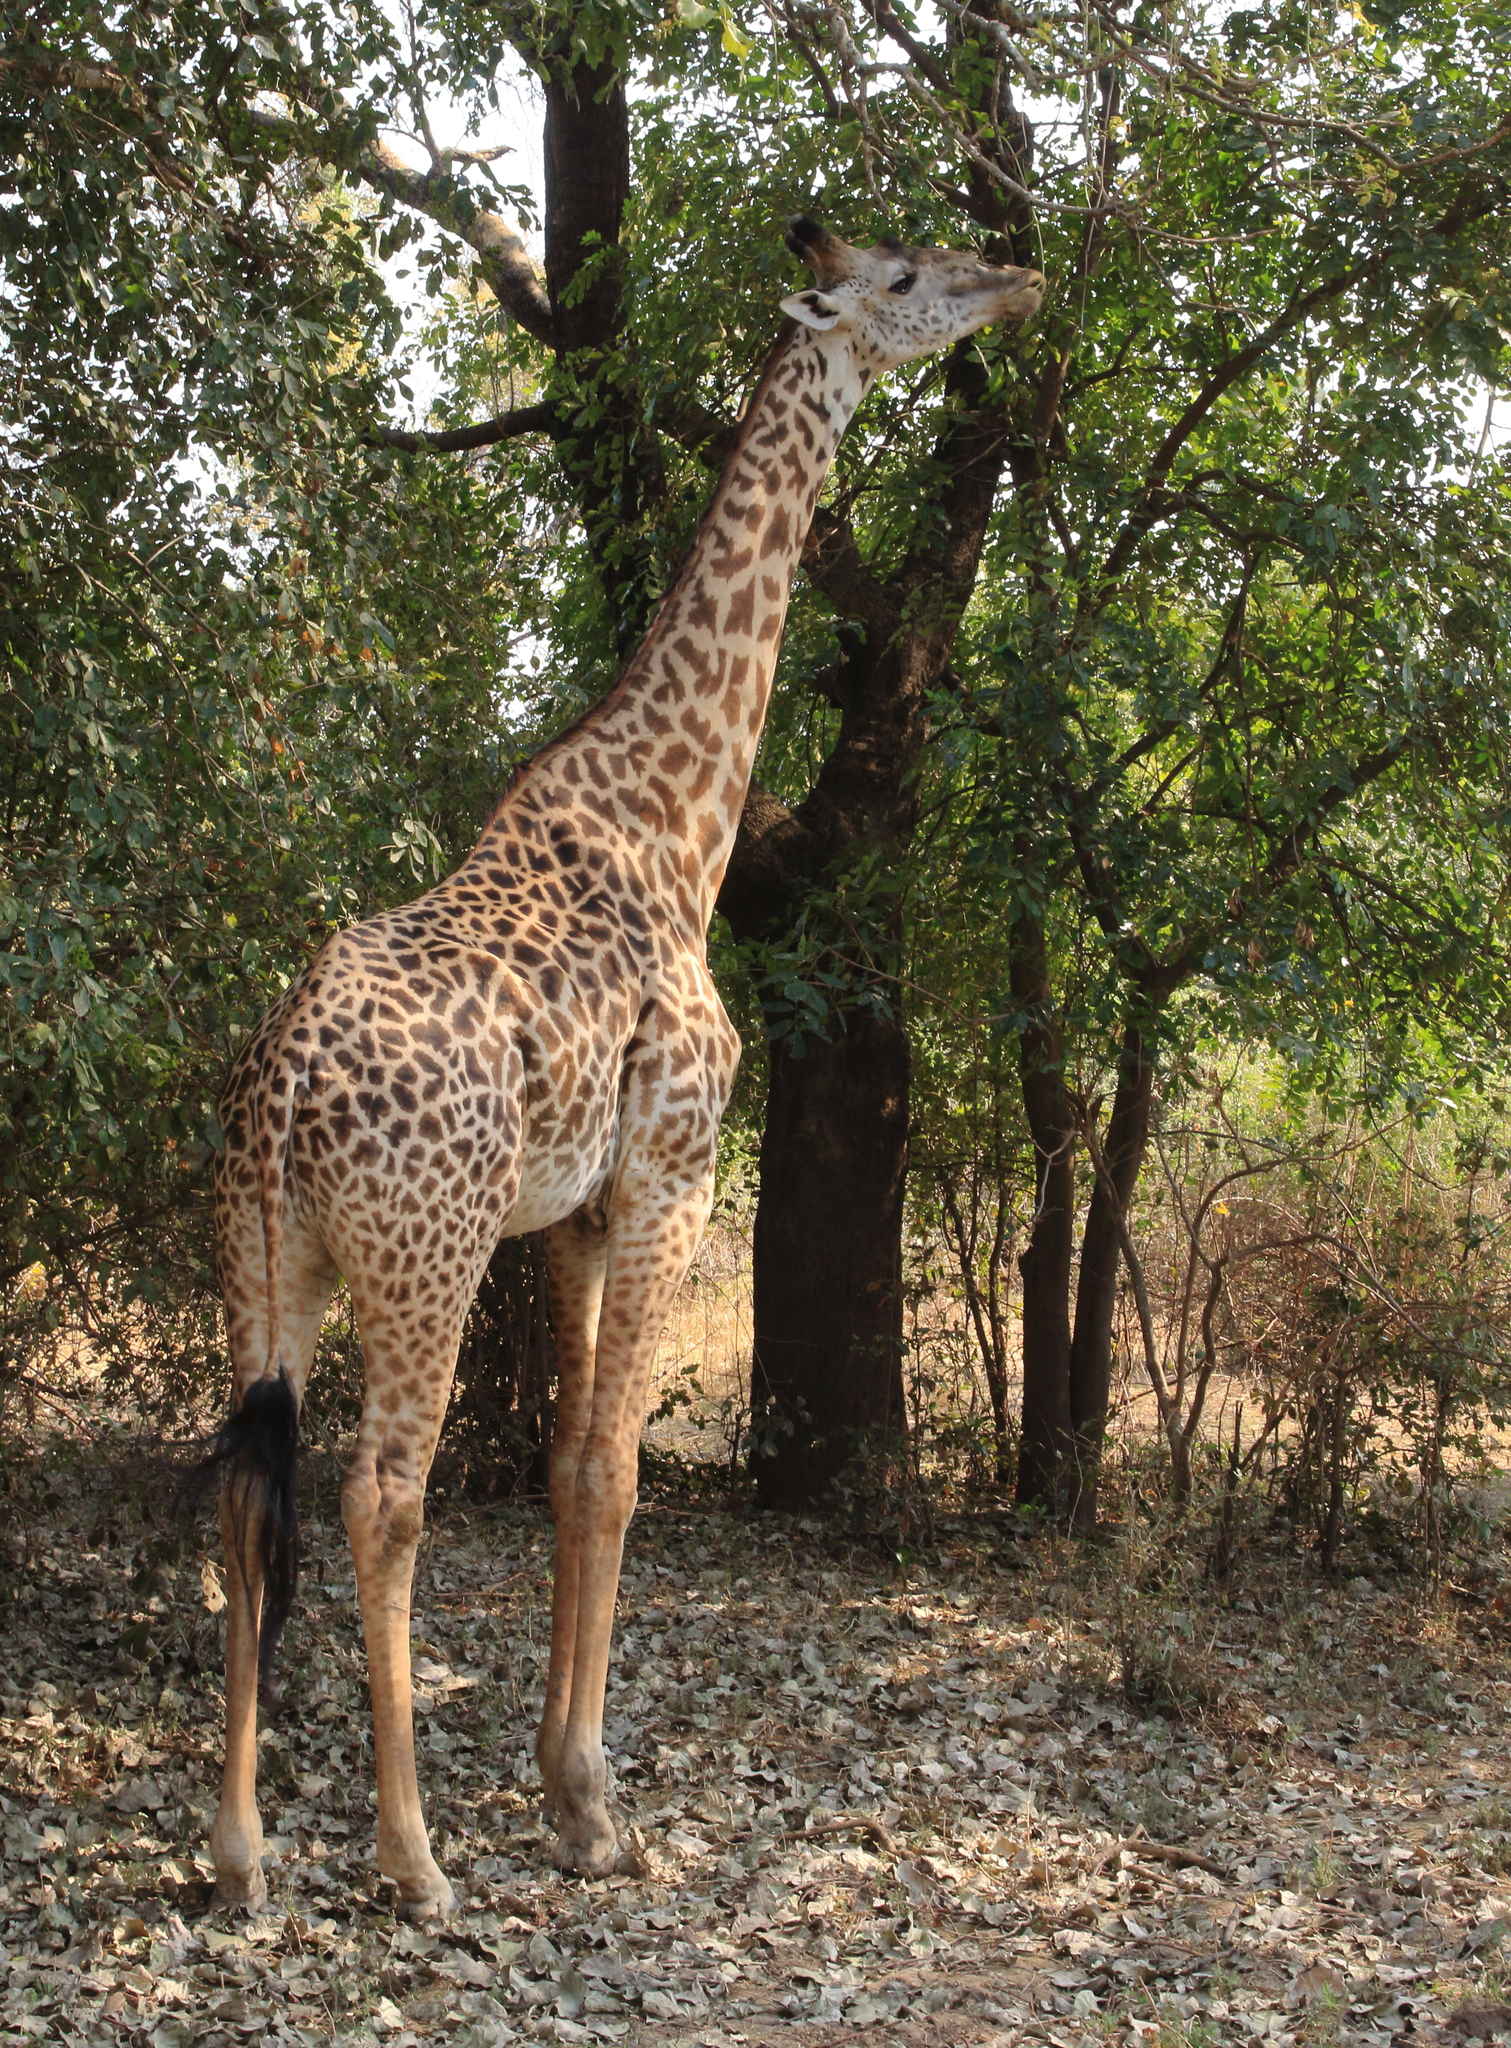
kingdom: Animalia
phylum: Chordata
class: Mammalia
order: Artiodactyla
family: Giraffidae
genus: Giraffa
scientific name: Giraffa tippelskirchi
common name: Masai giraffe
